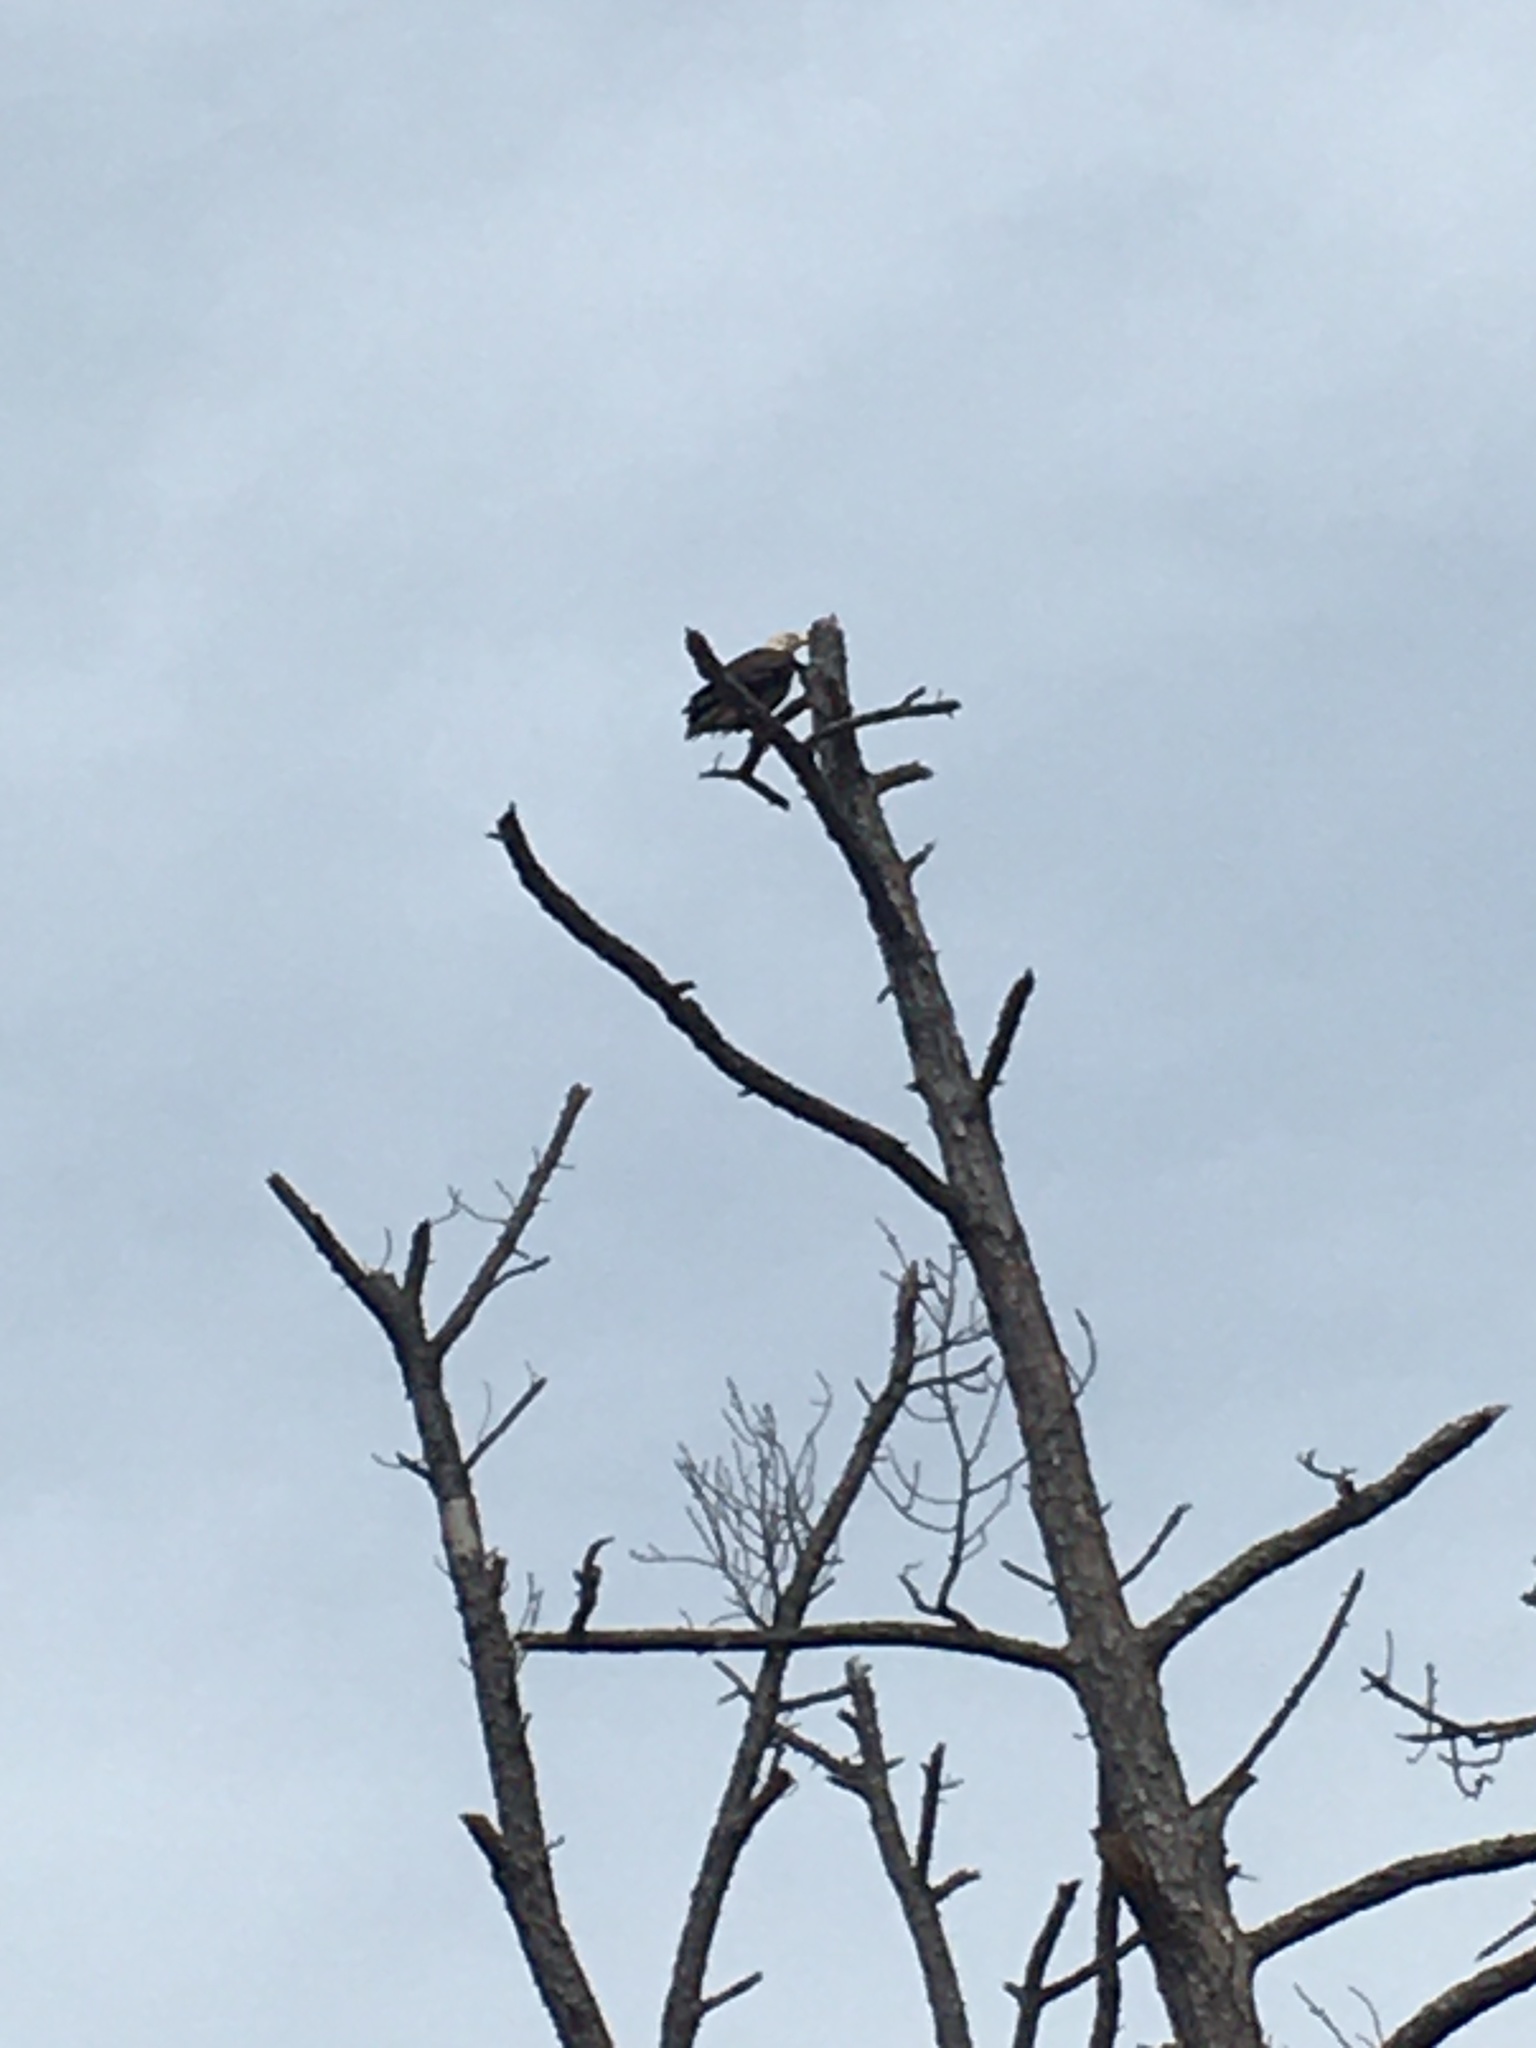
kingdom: Animalia
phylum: Chordata
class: Aves
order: Accipitriformes
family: Accipitridae
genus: Haliaeetus
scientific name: Haliaeetus leucocephalus
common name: Bald eagle
